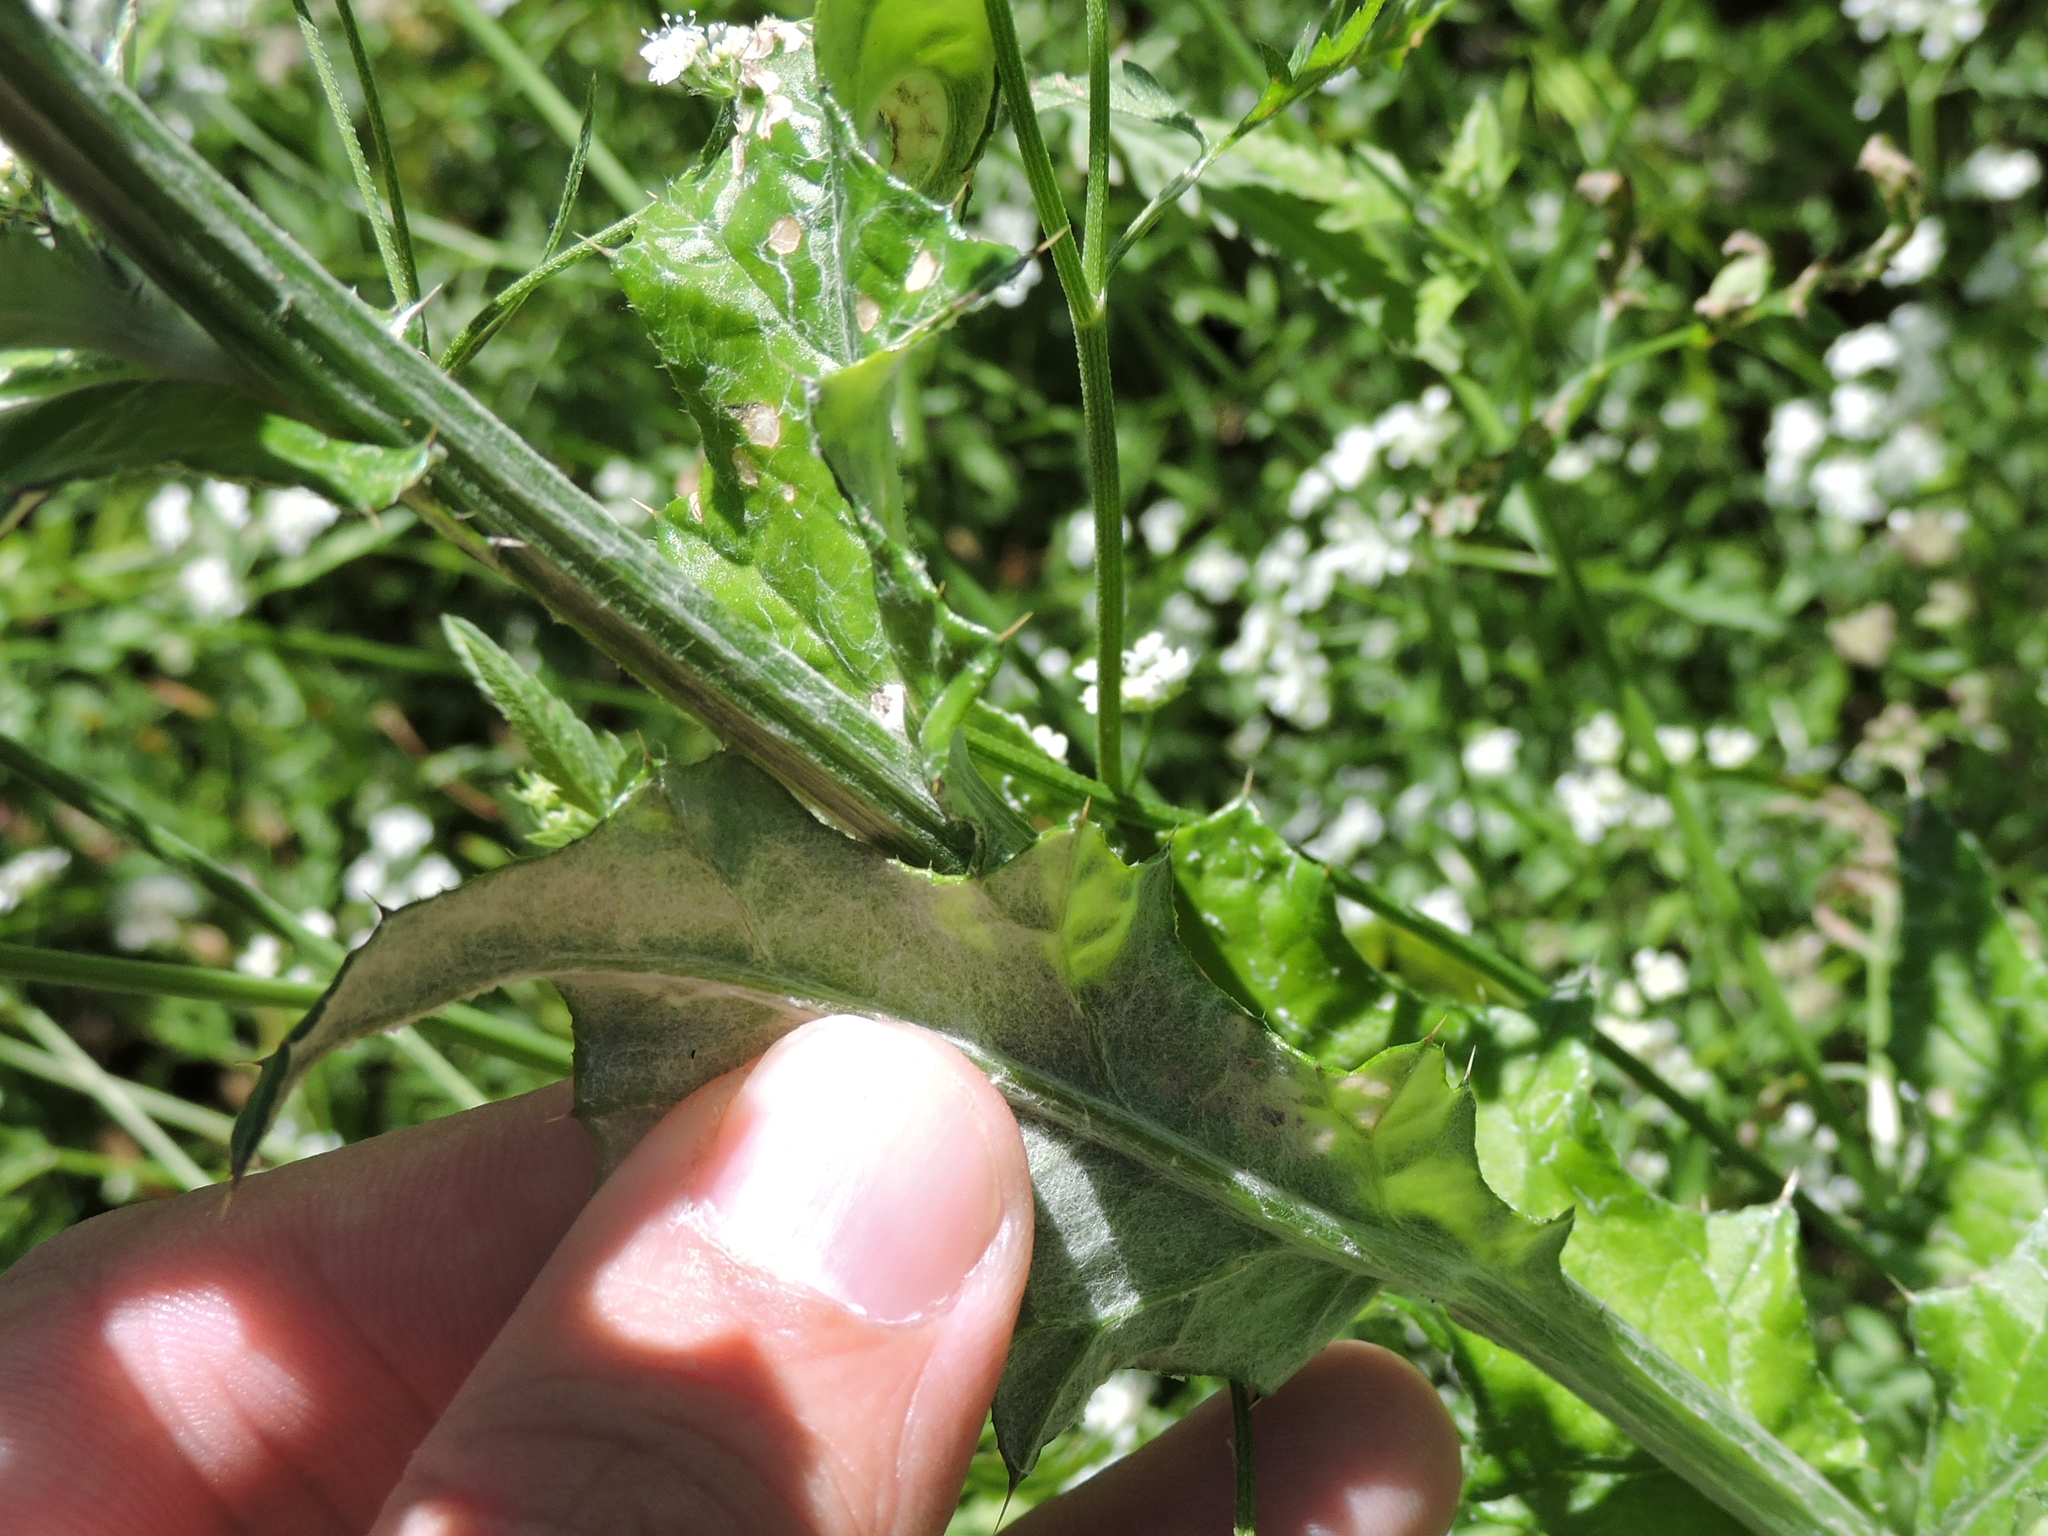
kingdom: Plantae
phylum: Tracheophyta
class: Magnoliopsida
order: Asterales
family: Asteraceae
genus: Cirsium
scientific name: Cirsium texanum
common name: Texas purple thistle
